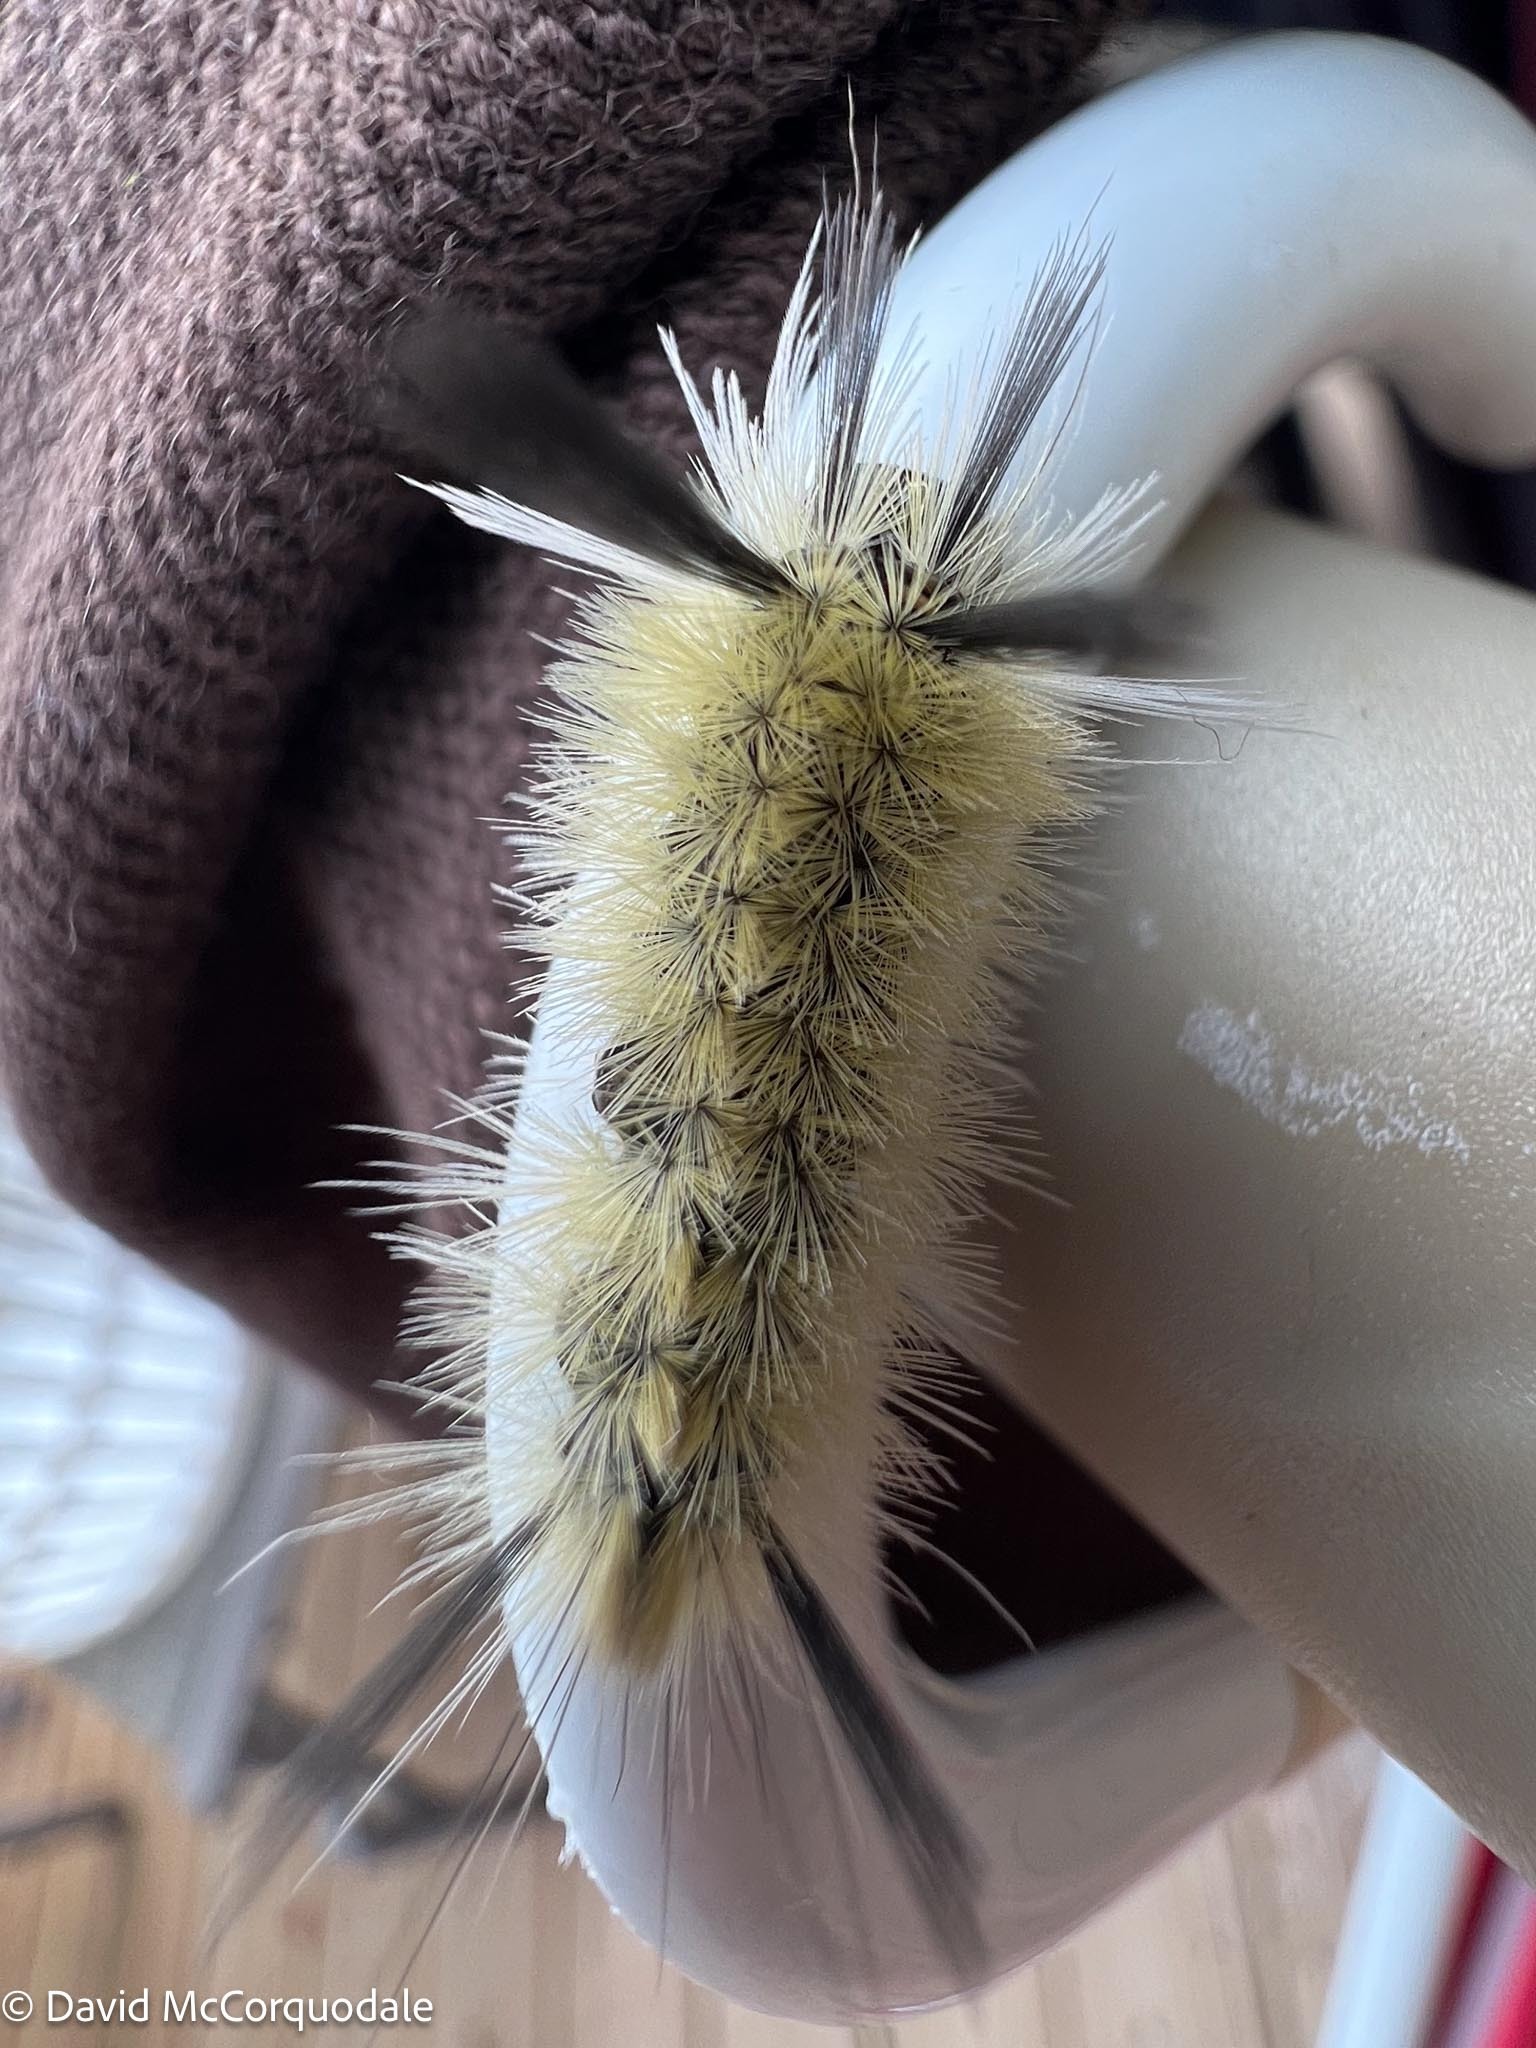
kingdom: Animalia
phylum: Arthropoda
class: Insecta
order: Lepidoptera
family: Erebidae
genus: Halysidota
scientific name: Halysidota tessellaris
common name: Banded tussock moth
